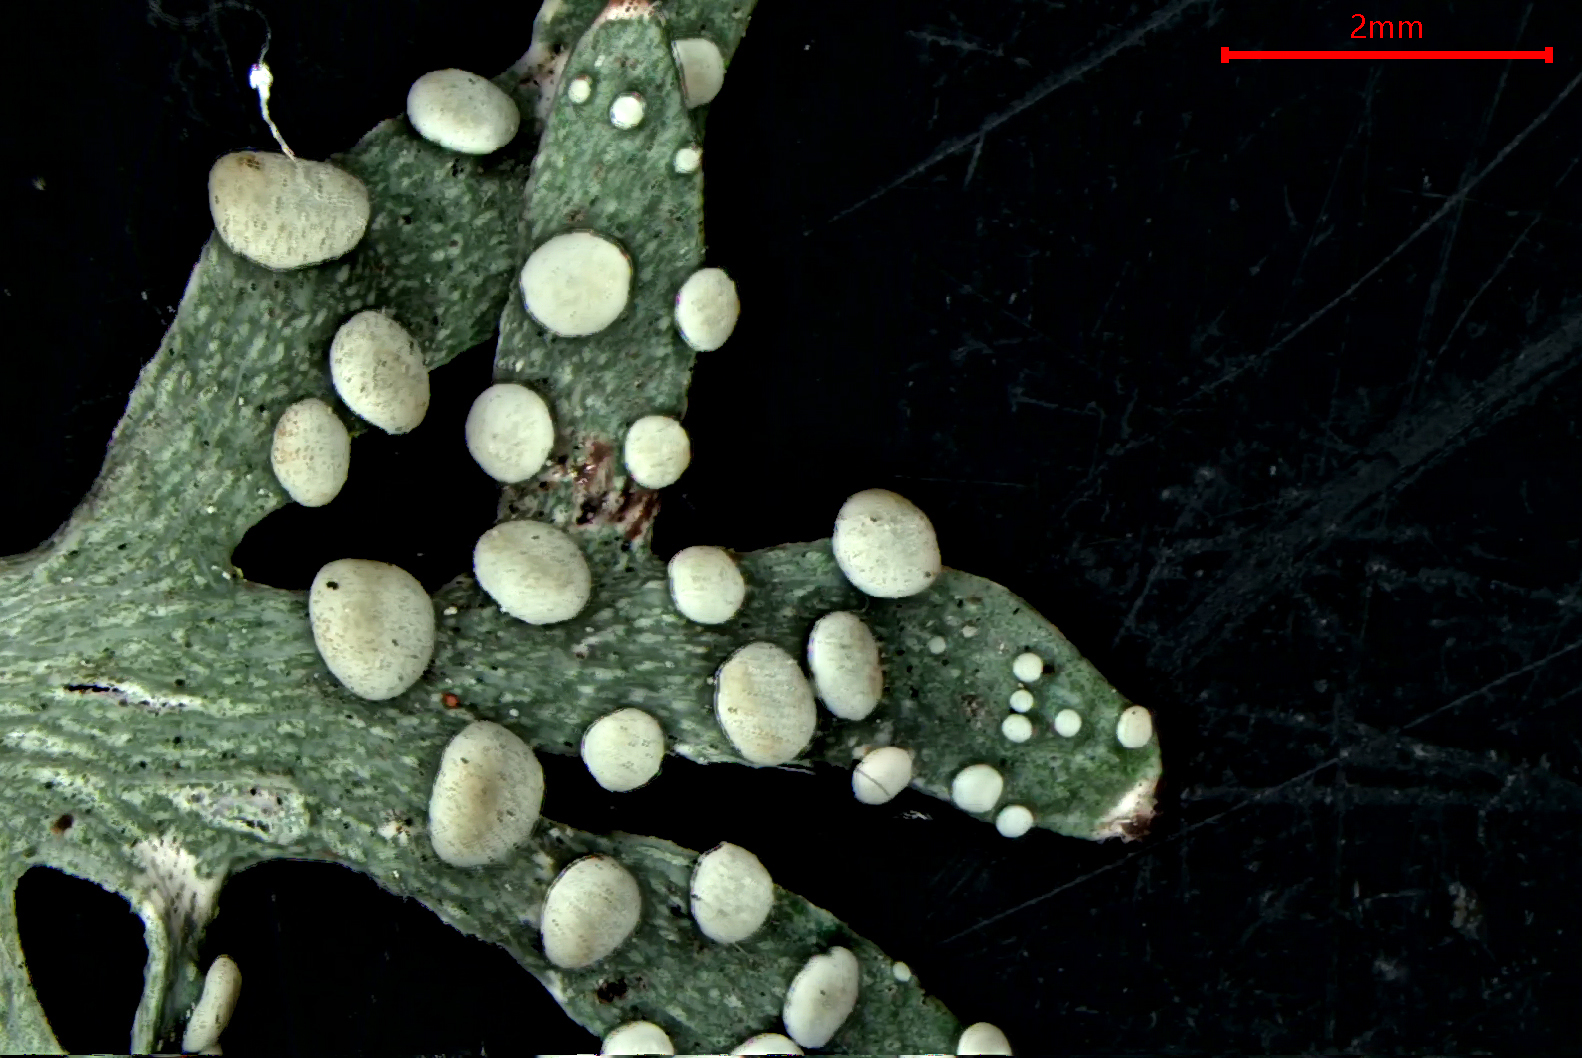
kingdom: Fungi
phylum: Ascomycota
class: Lecanoromycetes
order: Lecanorales
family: Ramalinaceae
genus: Ramalina
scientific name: Ramalina celastri
